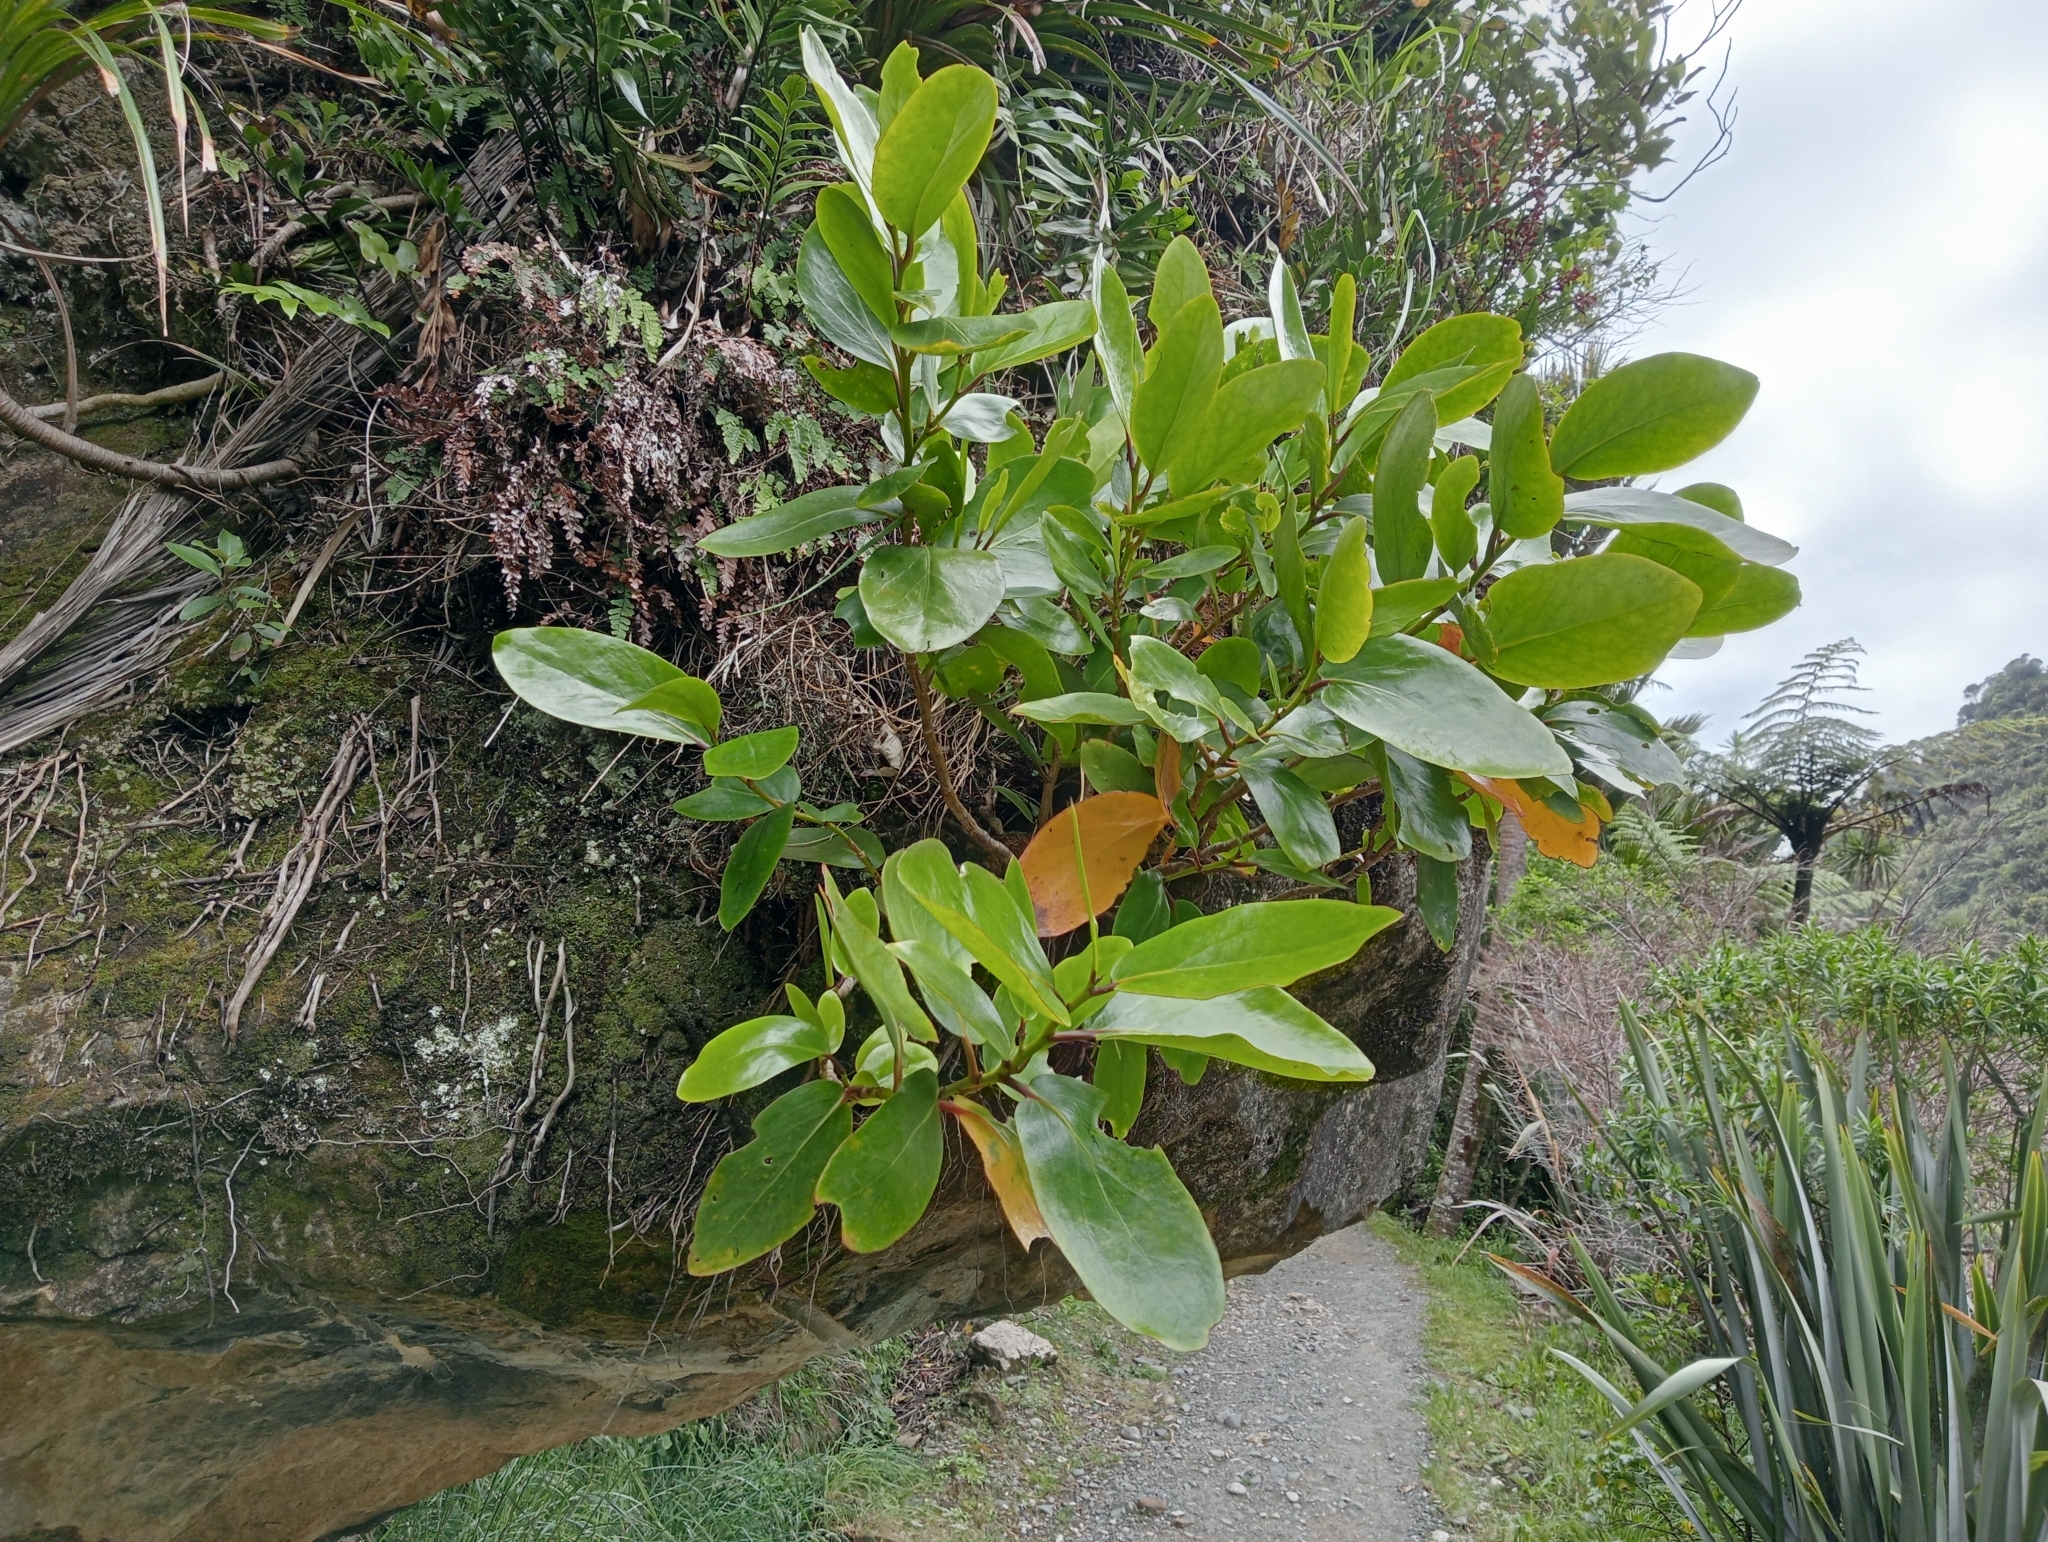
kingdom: Plantae
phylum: Tracheophyta
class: Magnoliopsida
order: Apiales
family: Griseliniaceae
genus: Griselinia
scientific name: Griselinia lucida
